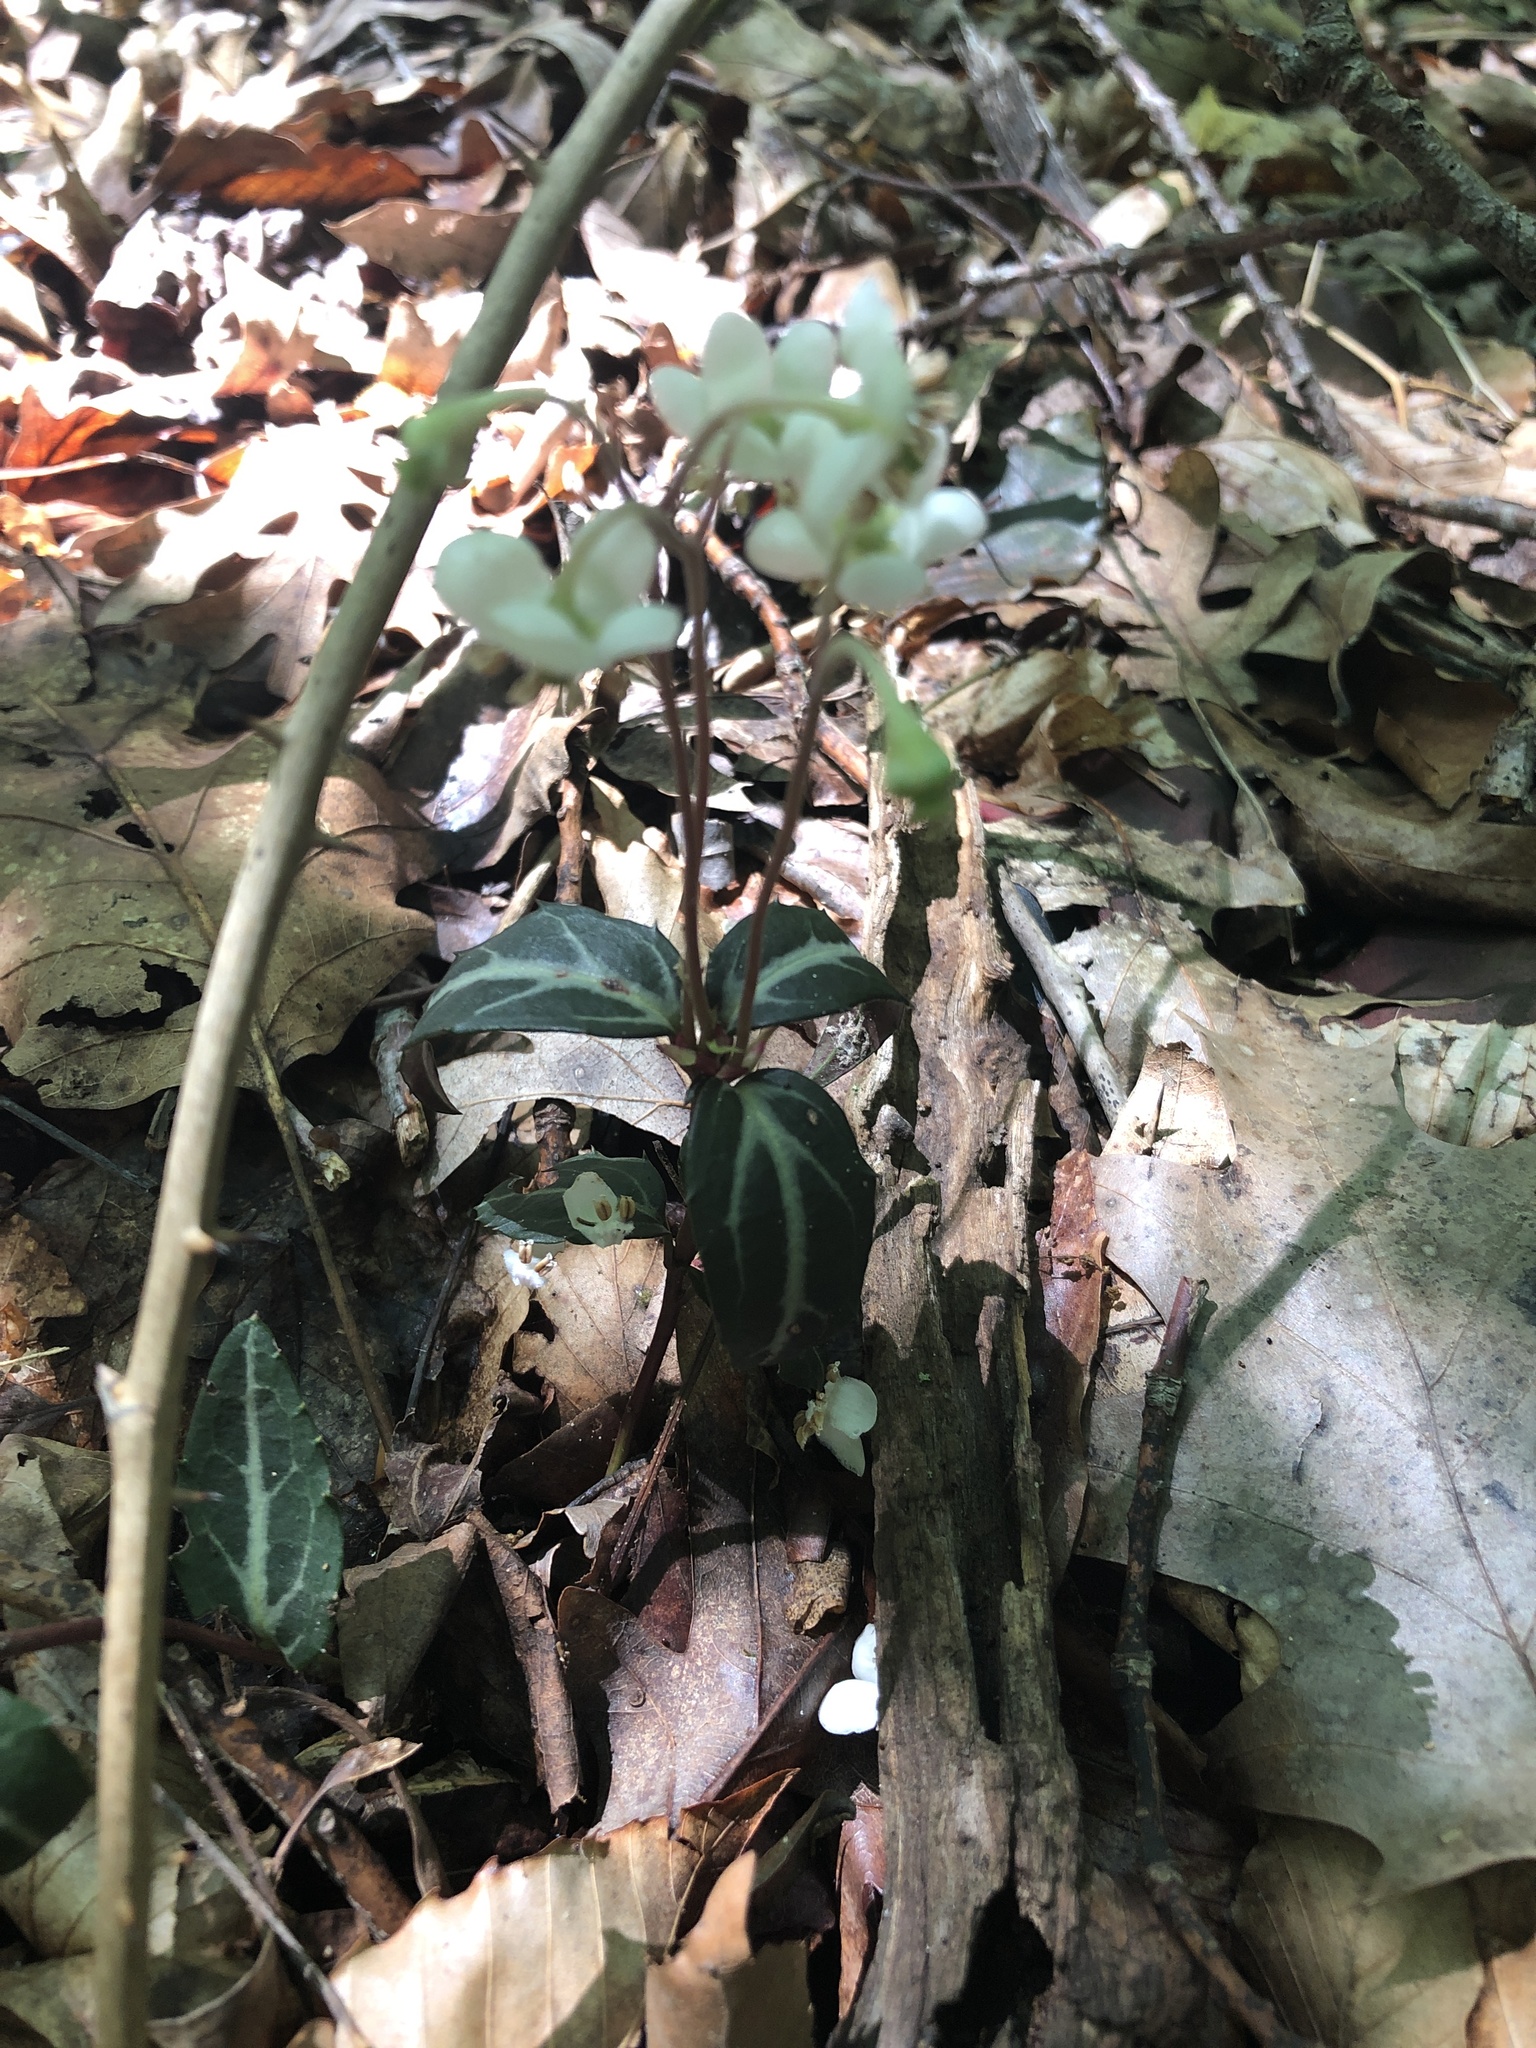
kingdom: Plantae
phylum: Tracheophyta
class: Magnoliopsida
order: Ericales
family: Ericaceae
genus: Chimaphila
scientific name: Chimaphila maculata
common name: Spotted pipsissewa
